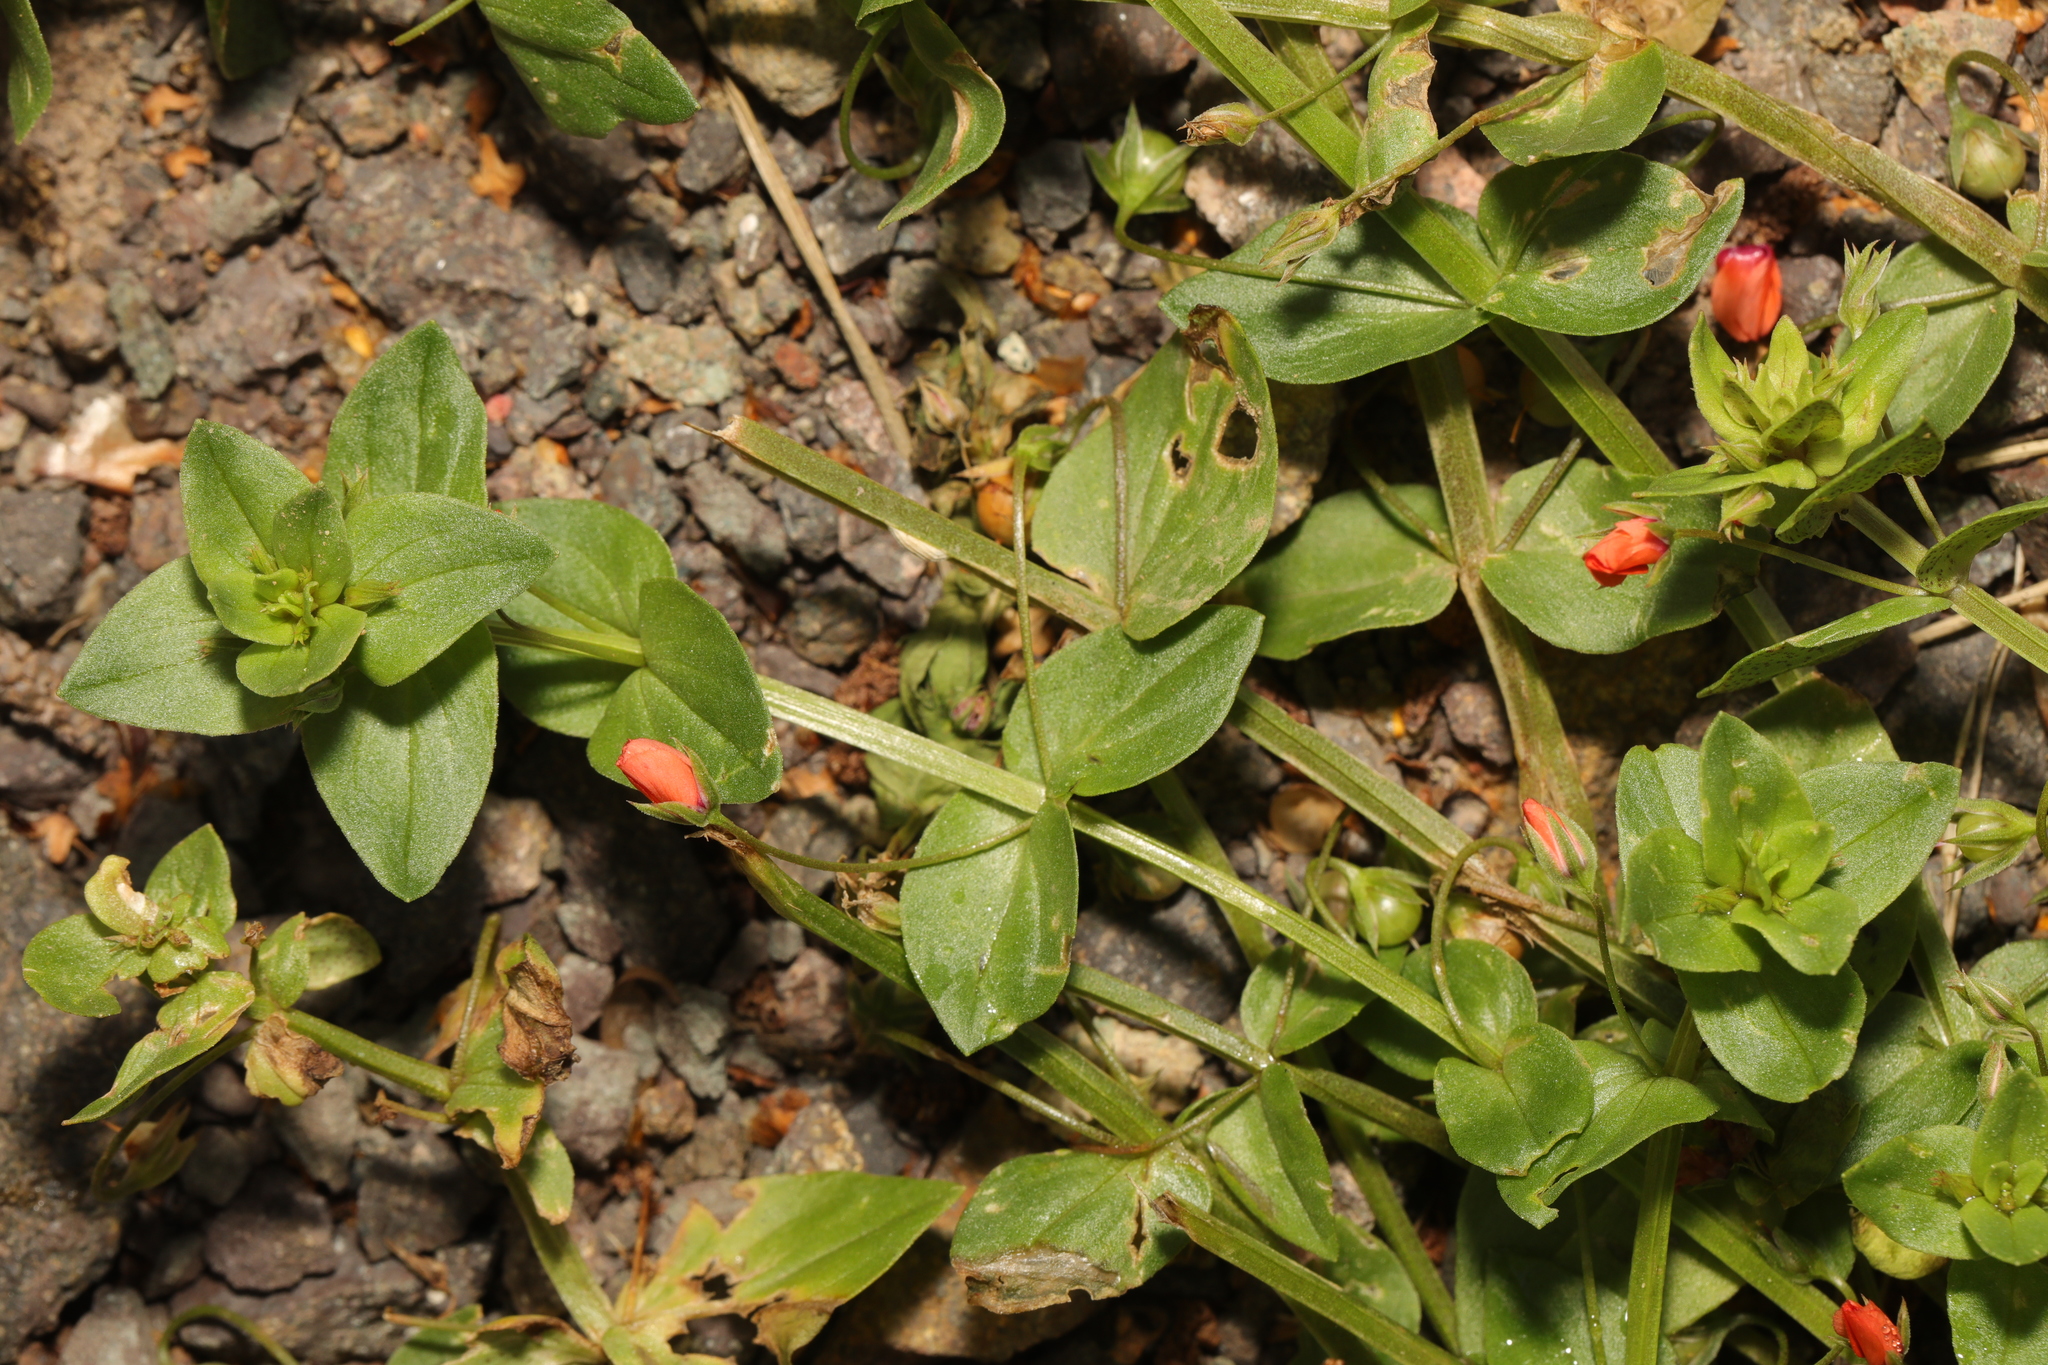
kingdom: Plantae
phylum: Tracheophyta
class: Magnoliopsida
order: Ericales
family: Primulaceae
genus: Lysimachia
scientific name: Lysimachia arvensis
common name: Scarlet pimpernel
